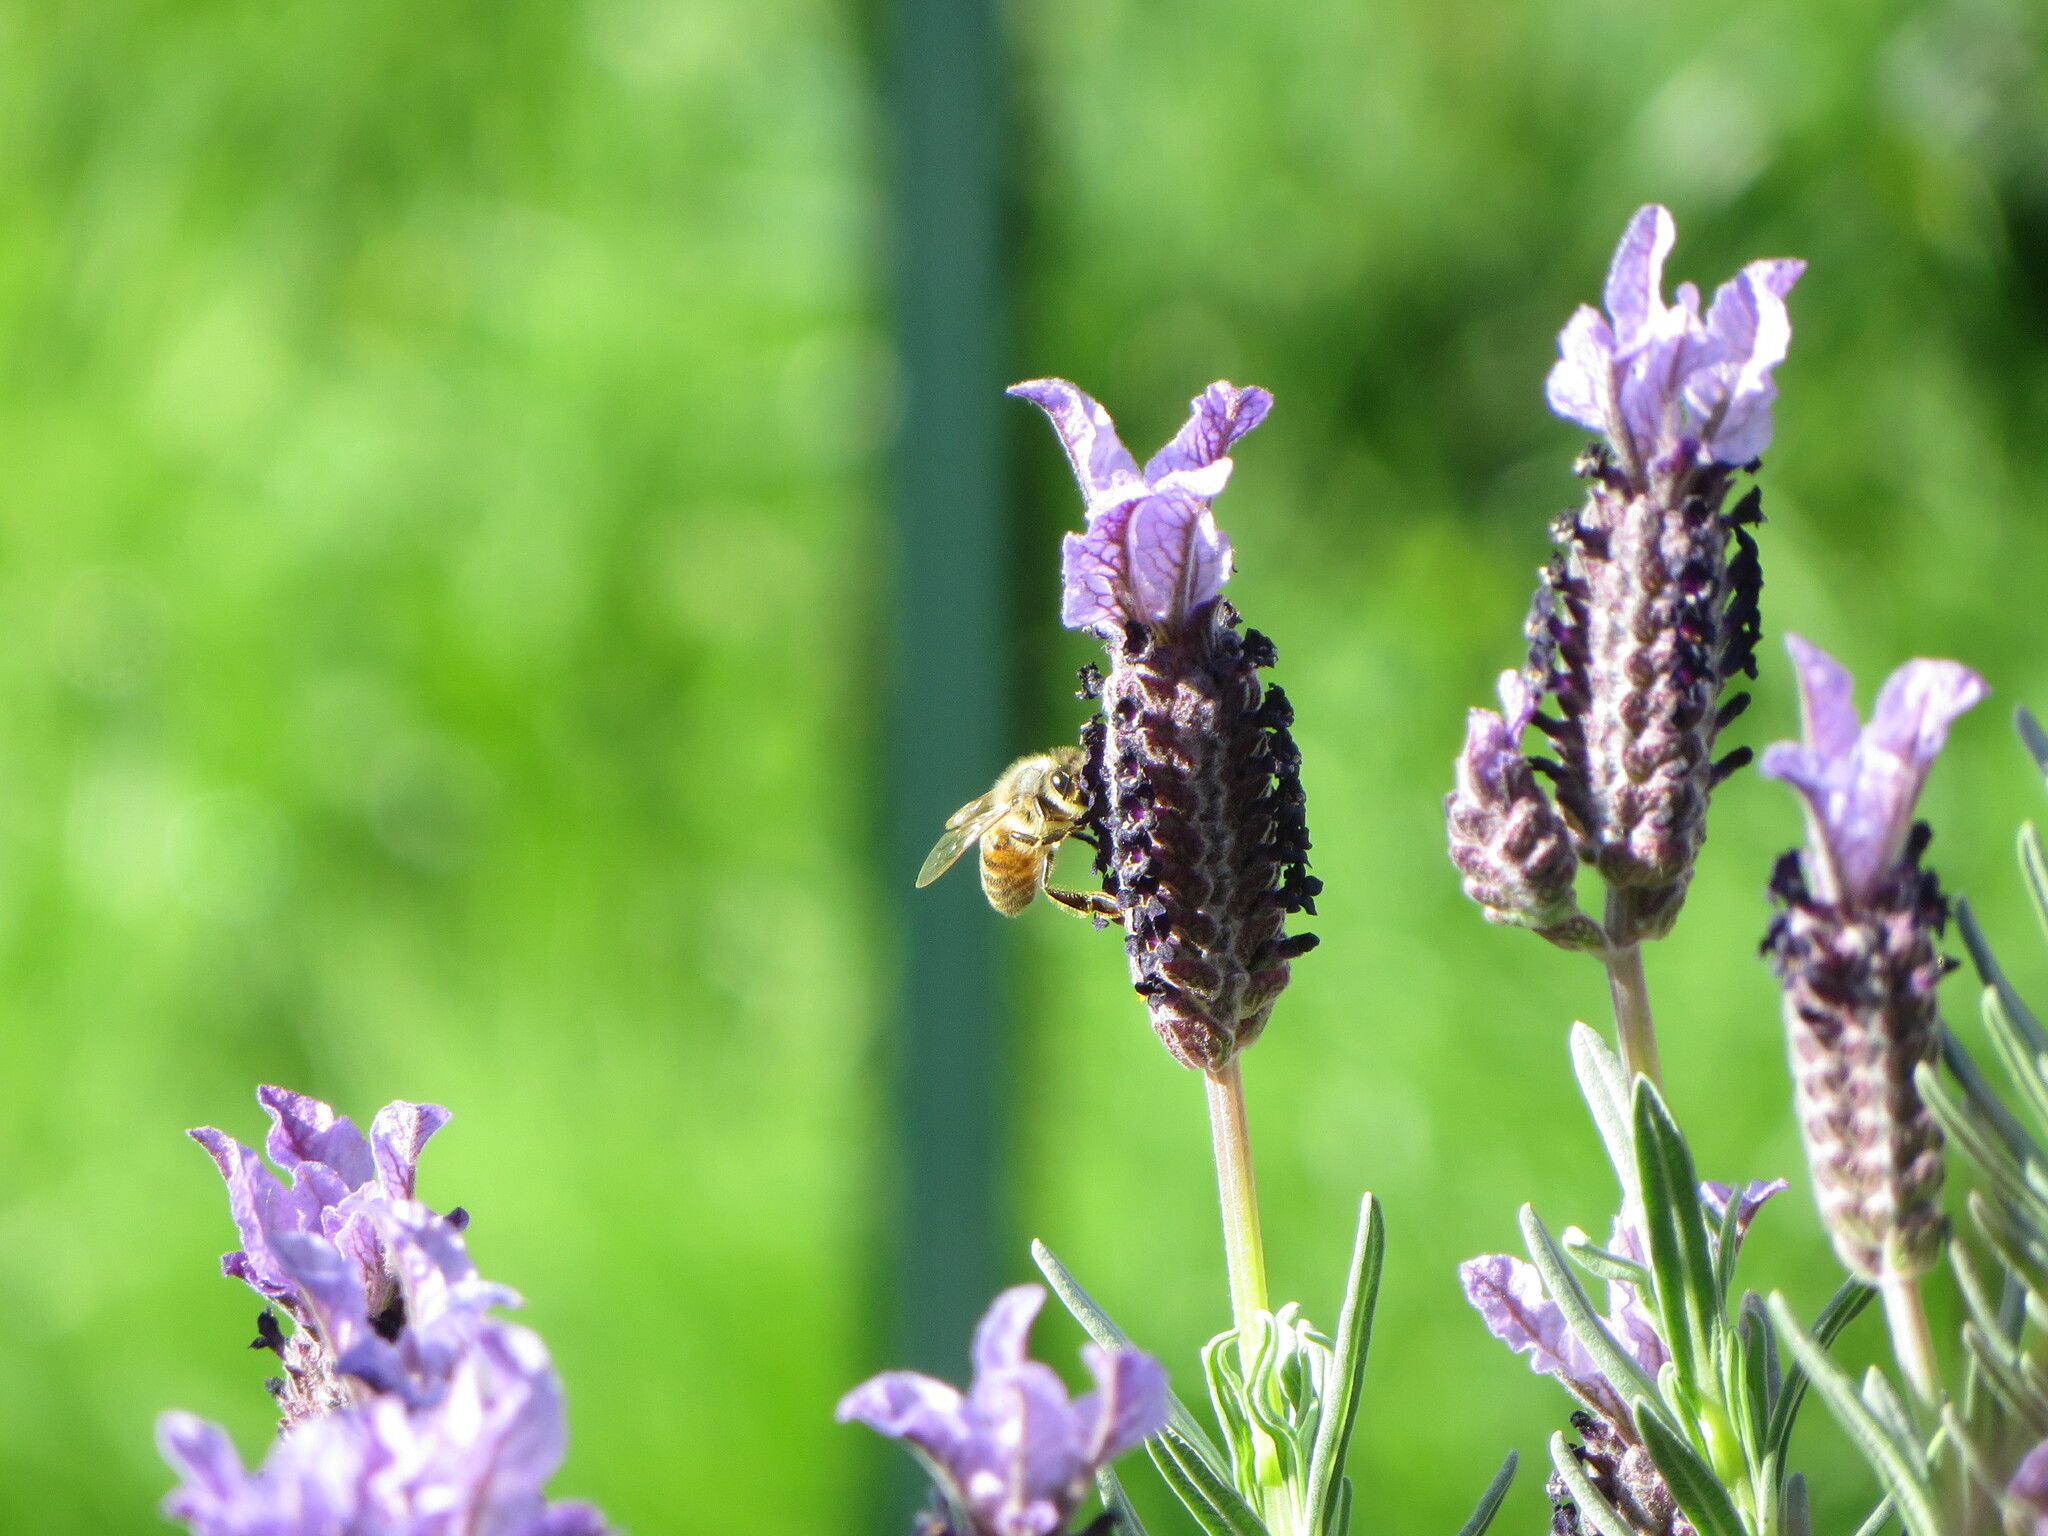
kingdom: Animalia
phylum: Arthropoda
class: Insecta
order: Hymenoptera
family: Apidae
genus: Apis
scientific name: Apis mellifera
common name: Honey bee
